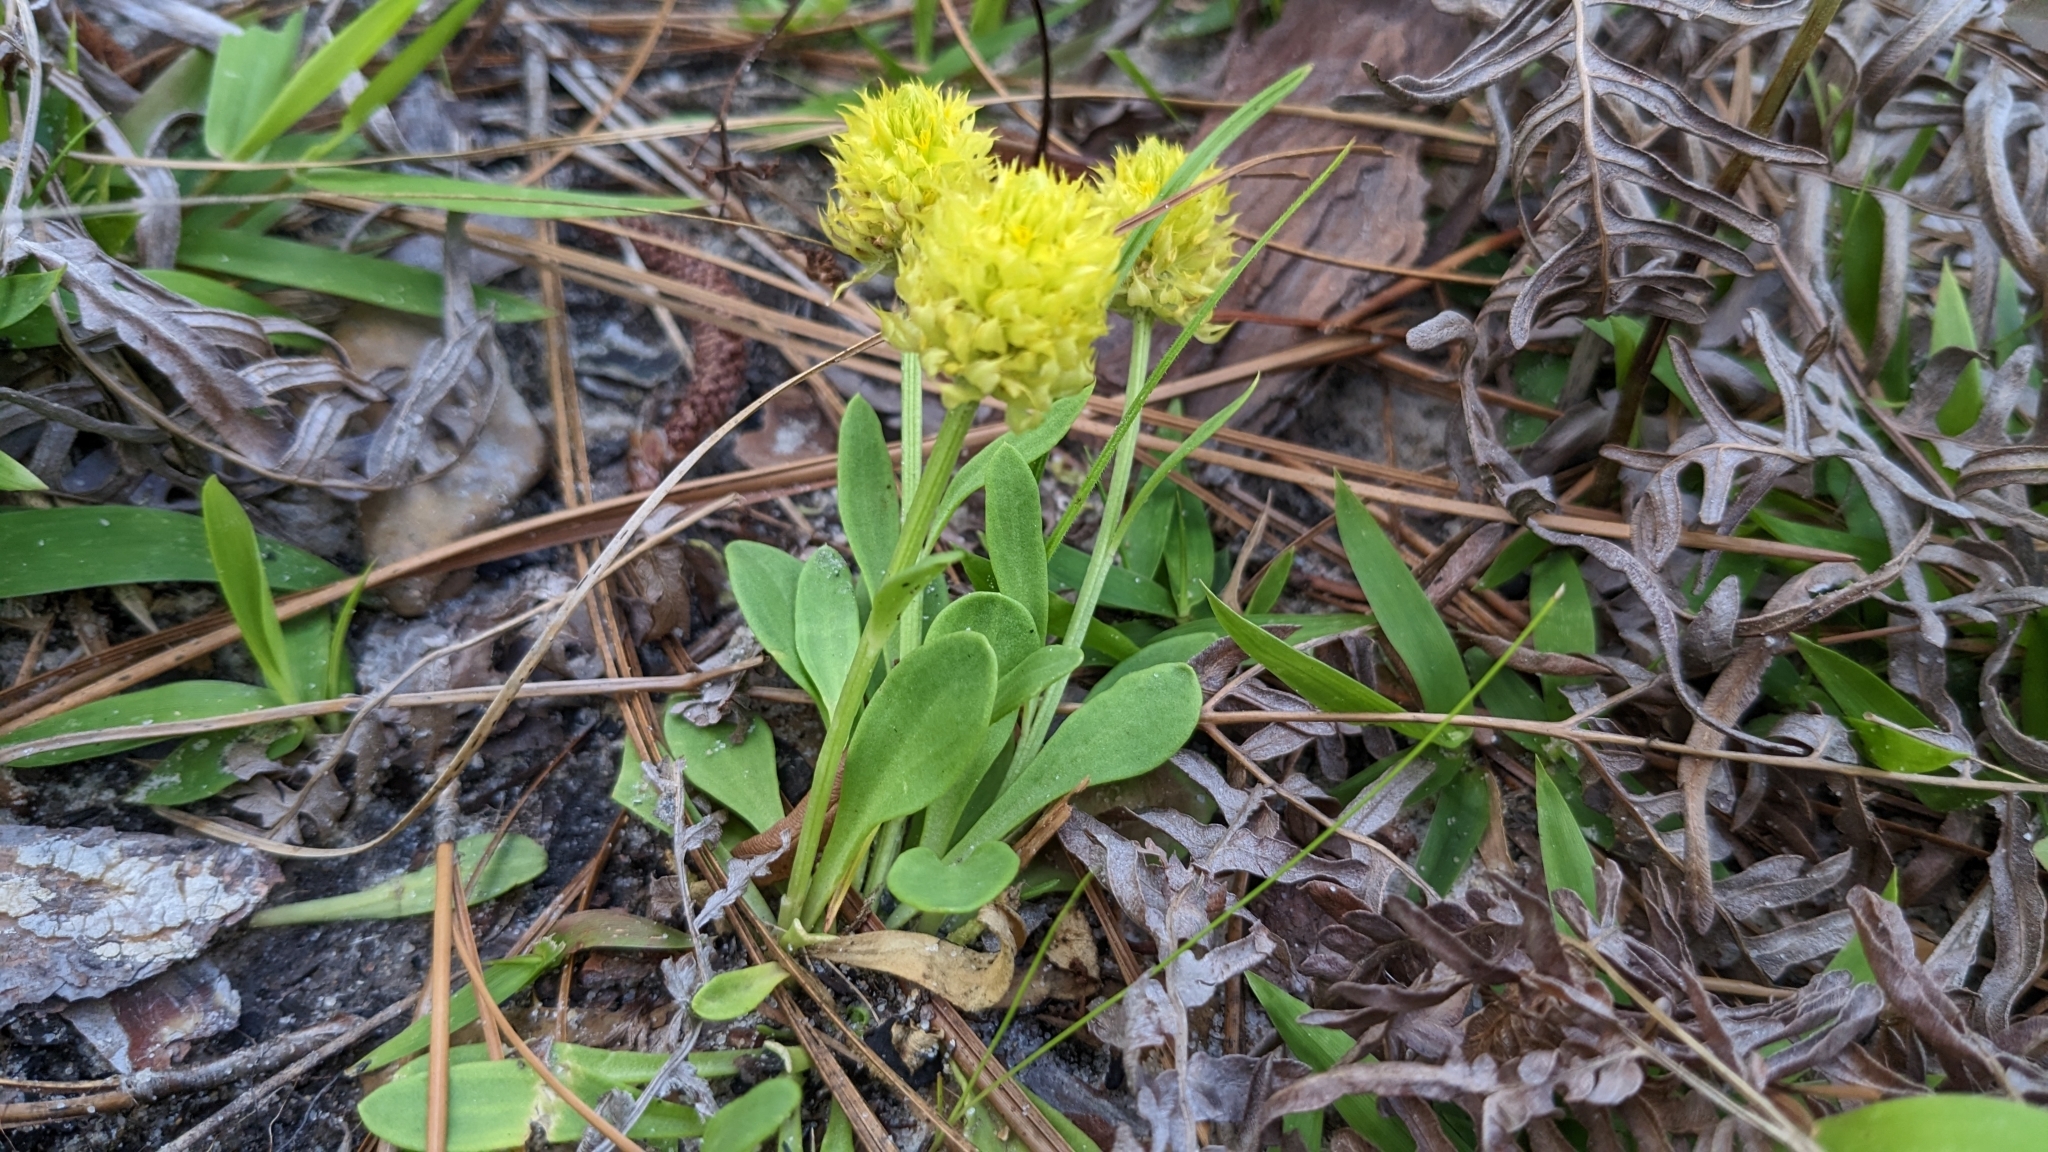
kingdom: Plantae
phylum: Tracheophyta
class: Magnoliopsida
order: Fabales
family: Polygalaceae
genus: Polygala
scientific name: Polygala nana
